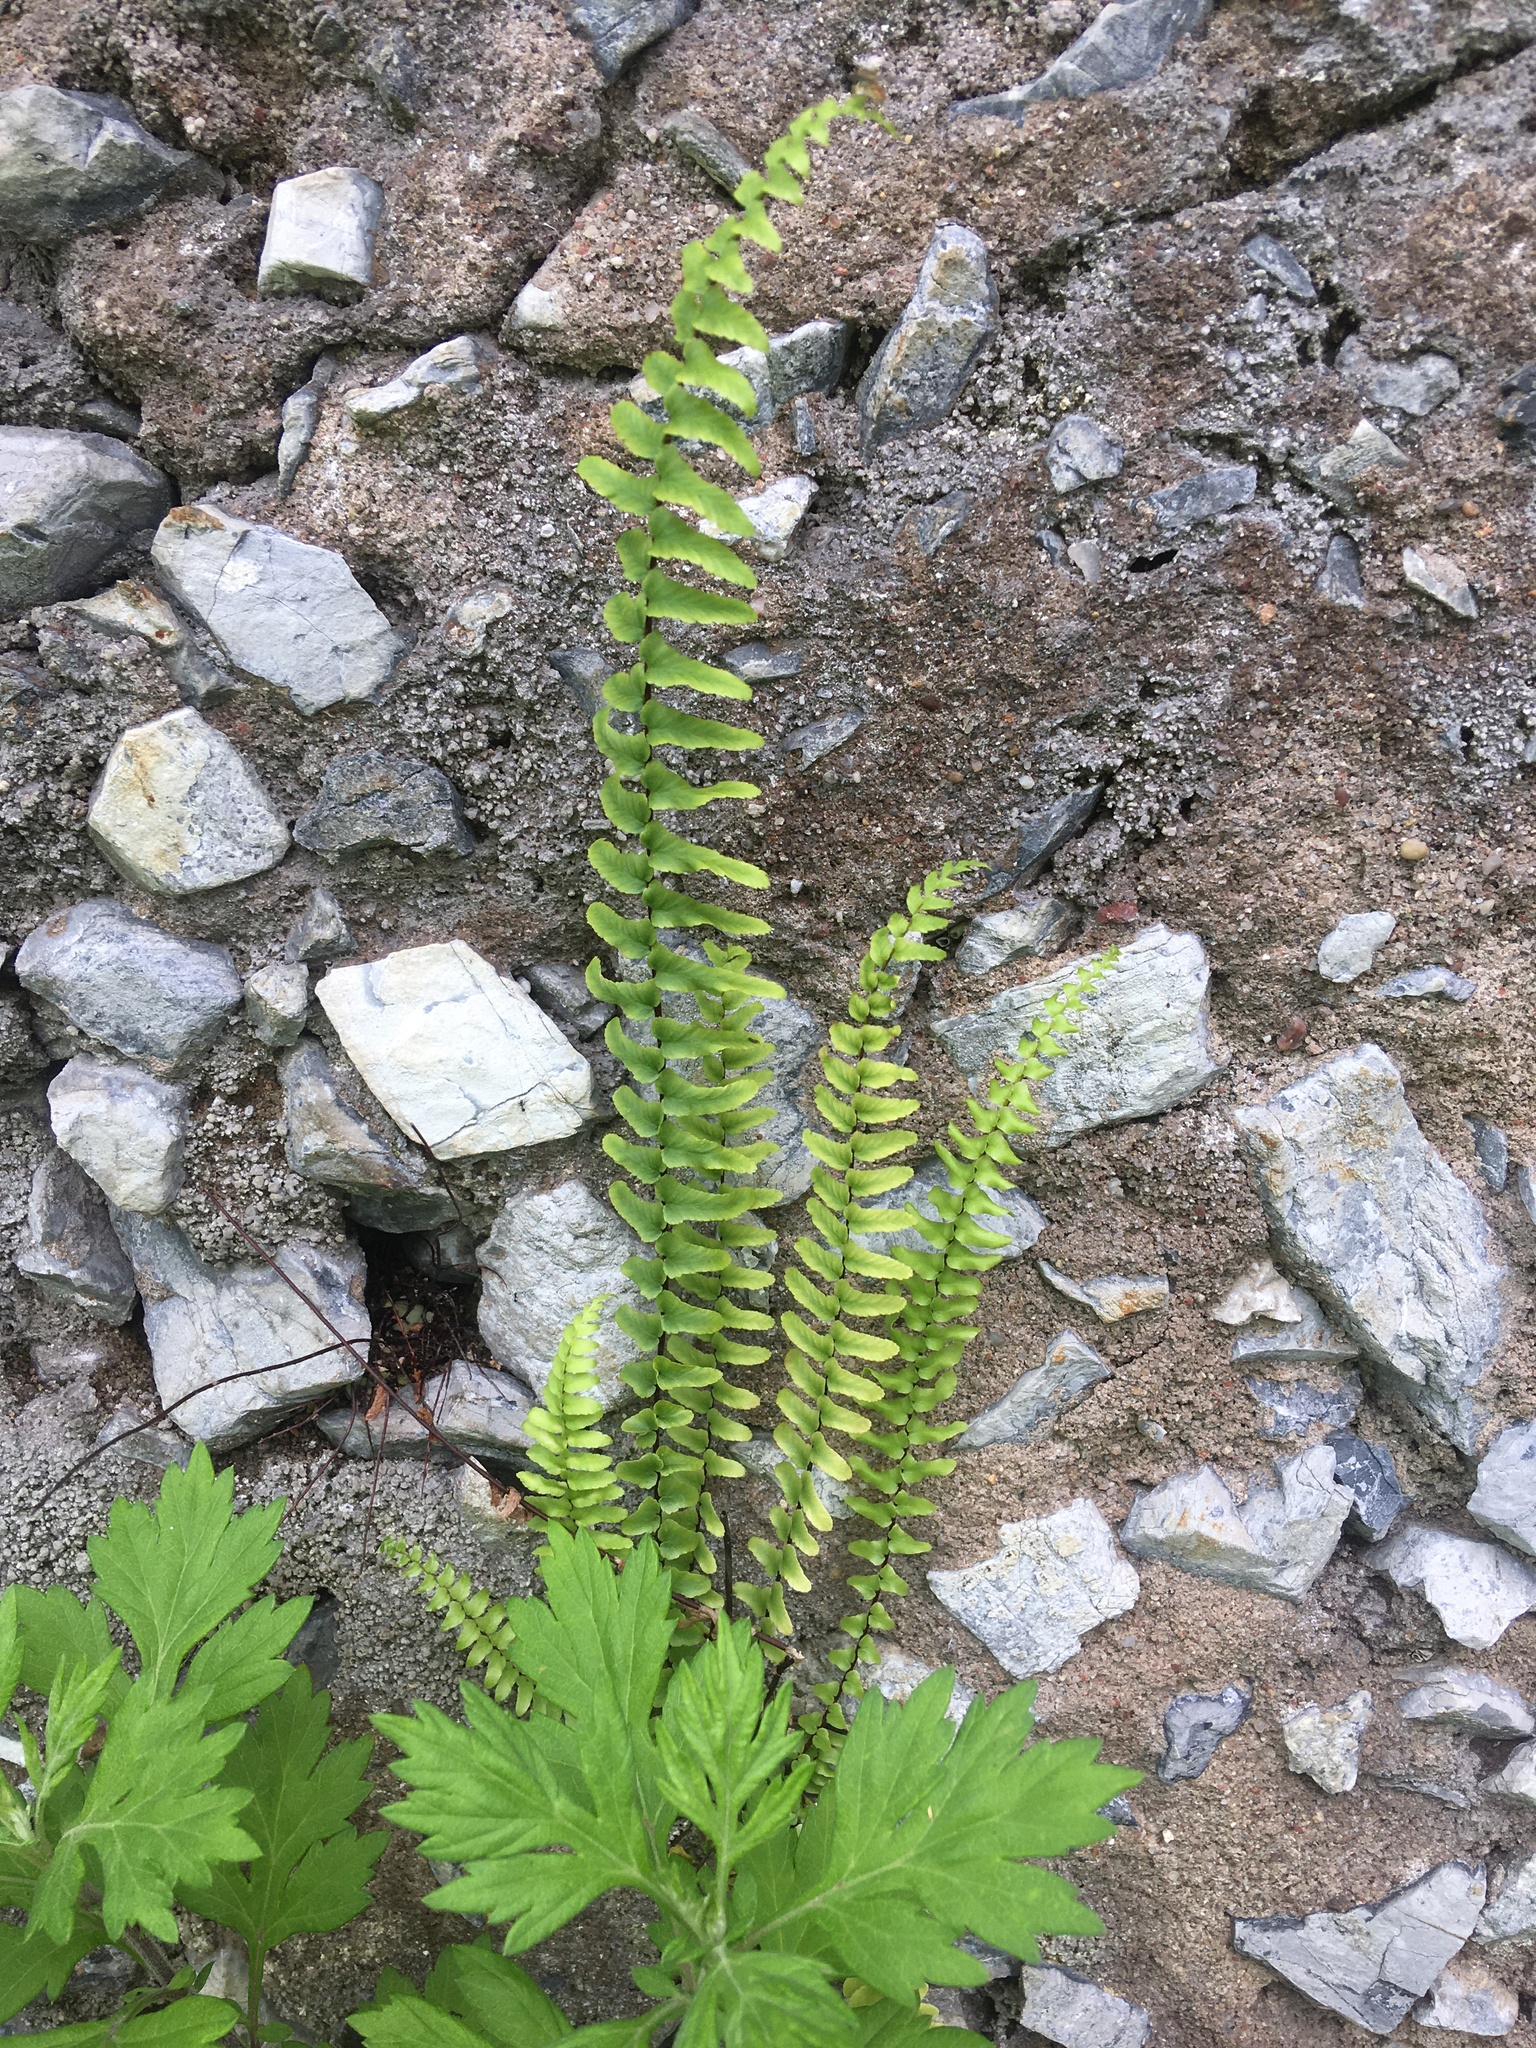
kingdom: Plantae
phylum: Tracheophyta
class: Polypodiopsida
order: Polypodiales
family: Aspleniaceae
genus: Asplenium
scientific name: Asplenium platyneuron
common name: Ebony spleenwort
